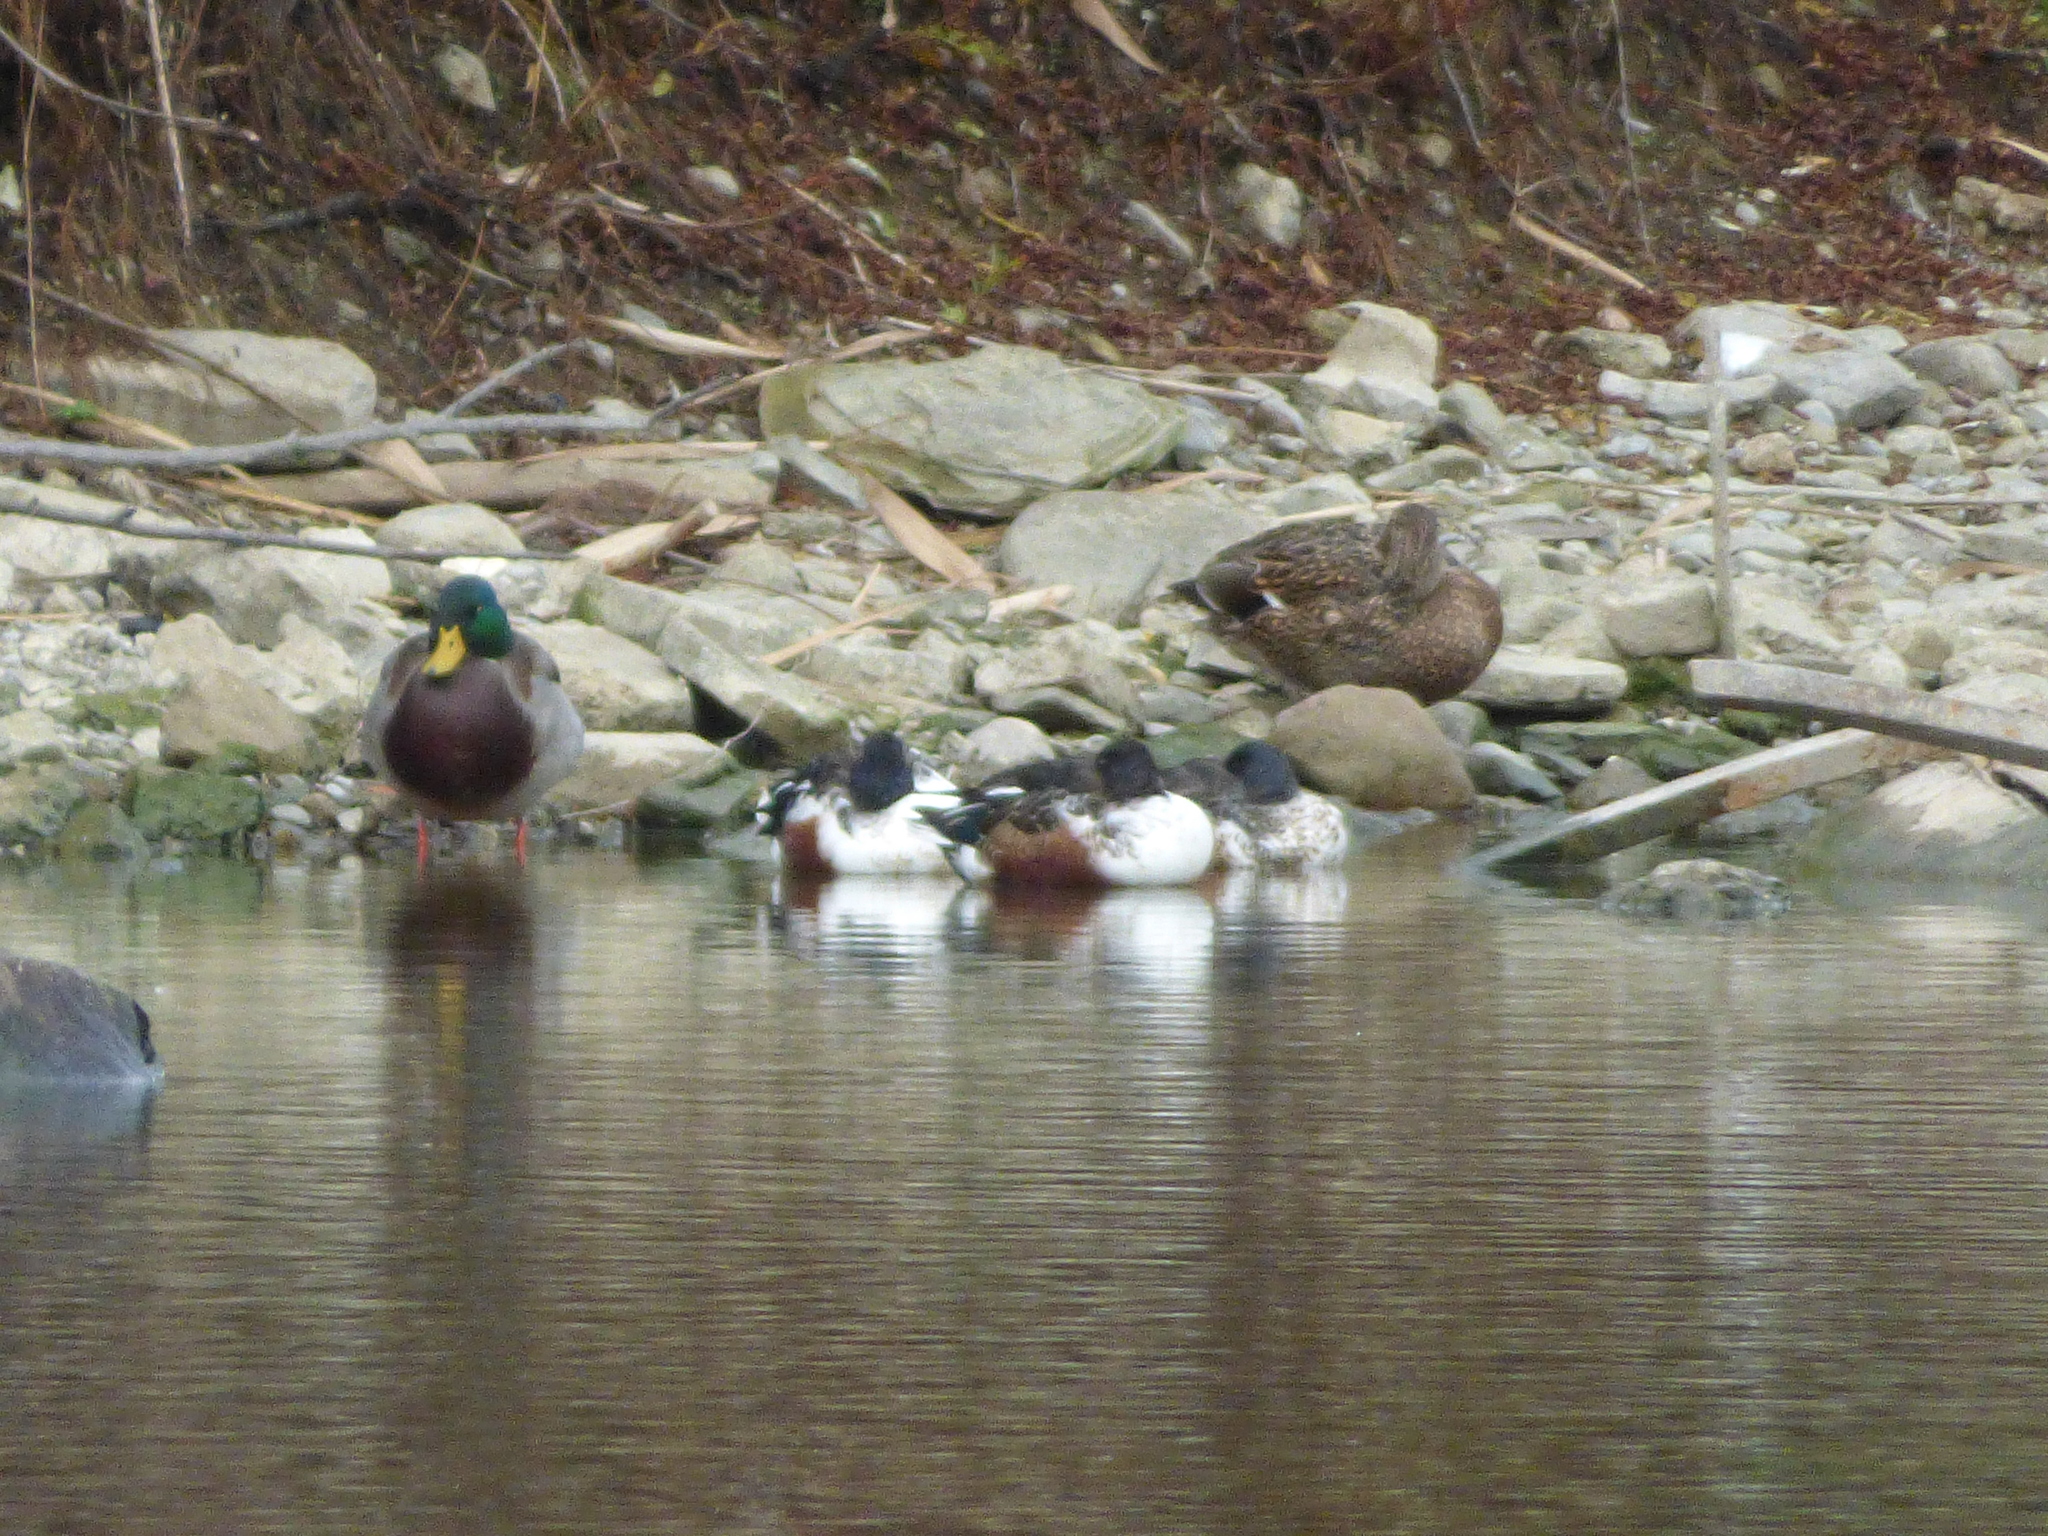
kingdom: Animalia
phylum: Chordata
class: Aves
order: Anseriformes
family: Anatidae
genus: Spatula
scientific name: Spatula clypeata
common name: Northern shoveler
